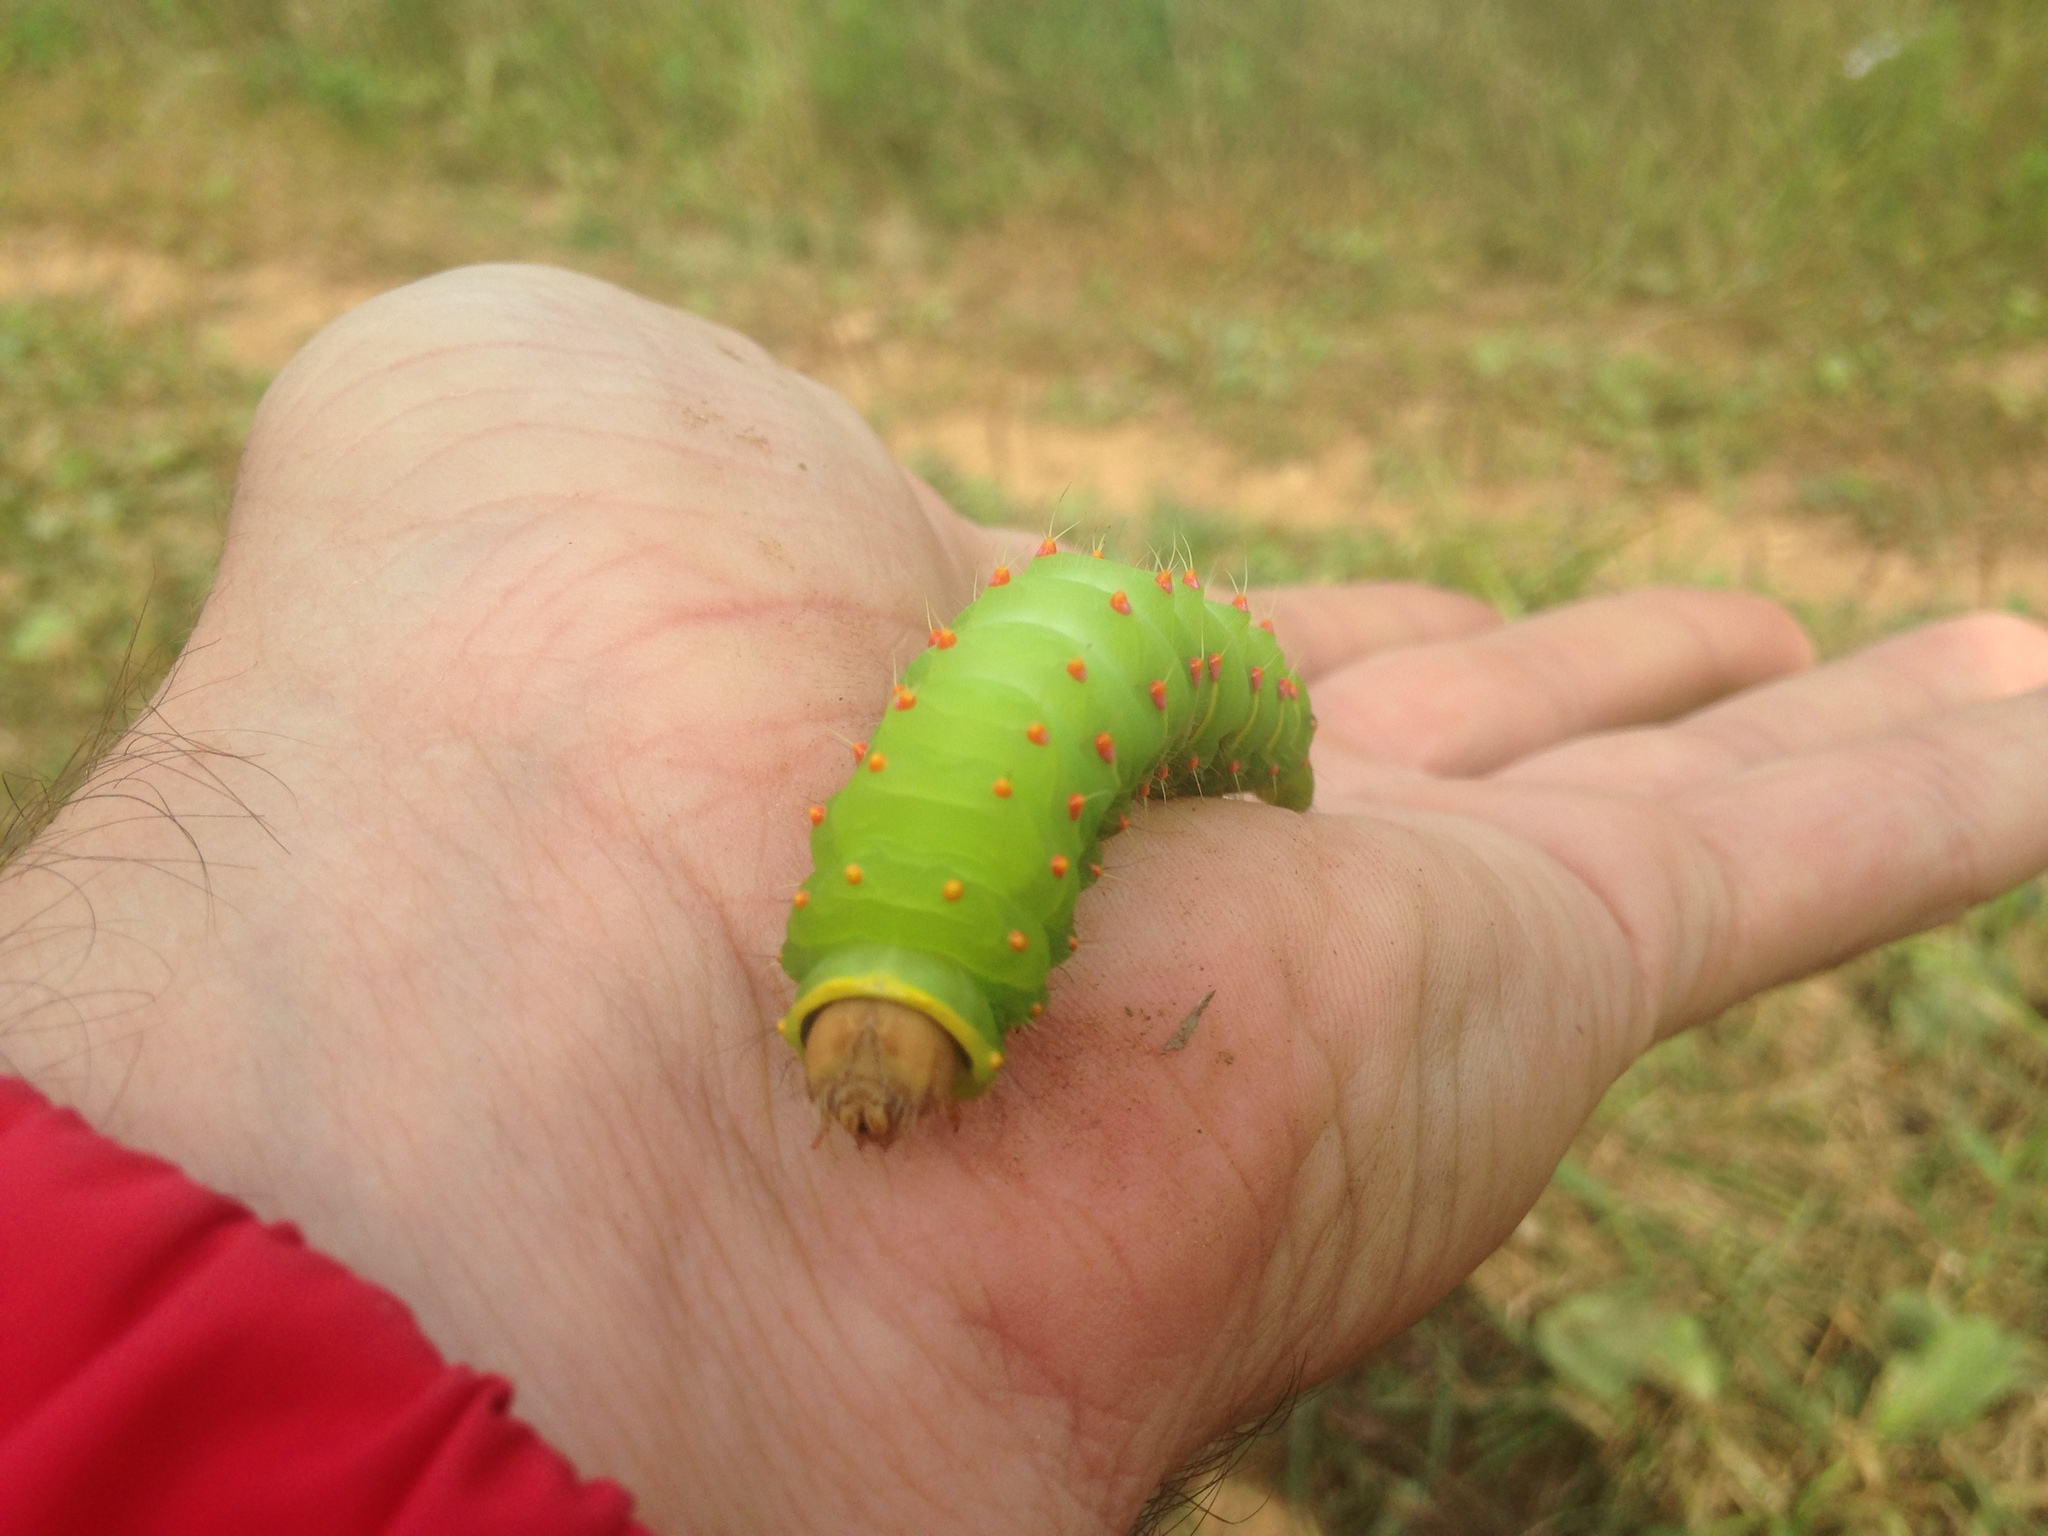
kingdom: Animalia
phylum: Arthropoda
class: Insecta
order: Lepidoptera
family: Saturniidae
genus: Antheraea
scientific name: Antheraea polyphemus
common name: Polyphemus moth
